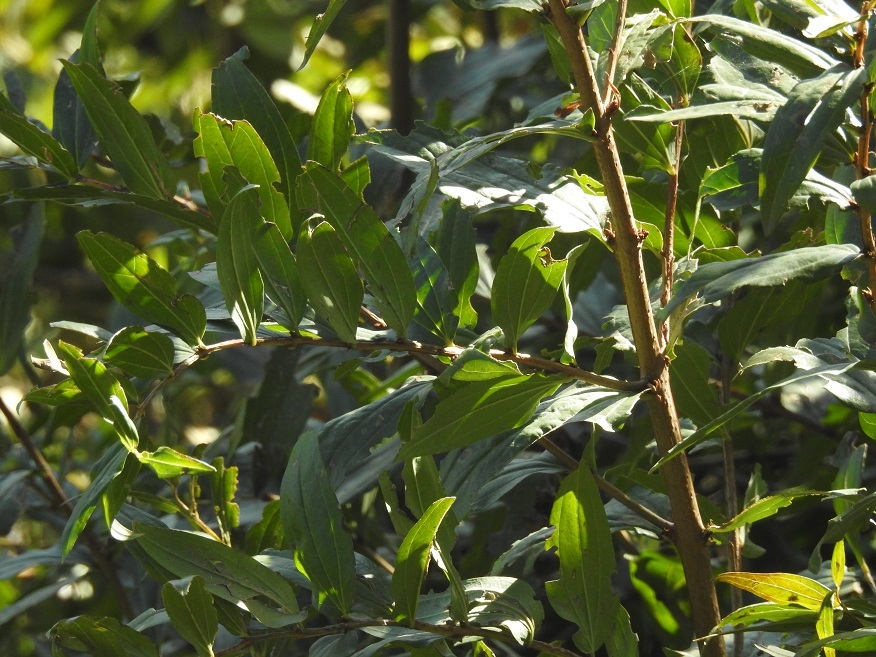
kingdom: Plantae
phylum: Tracheophyta
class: Magnoliopsida
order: Cucurbitales
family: Coriariaceae
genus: Coriaria
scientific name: Coriaria myrtifolia
